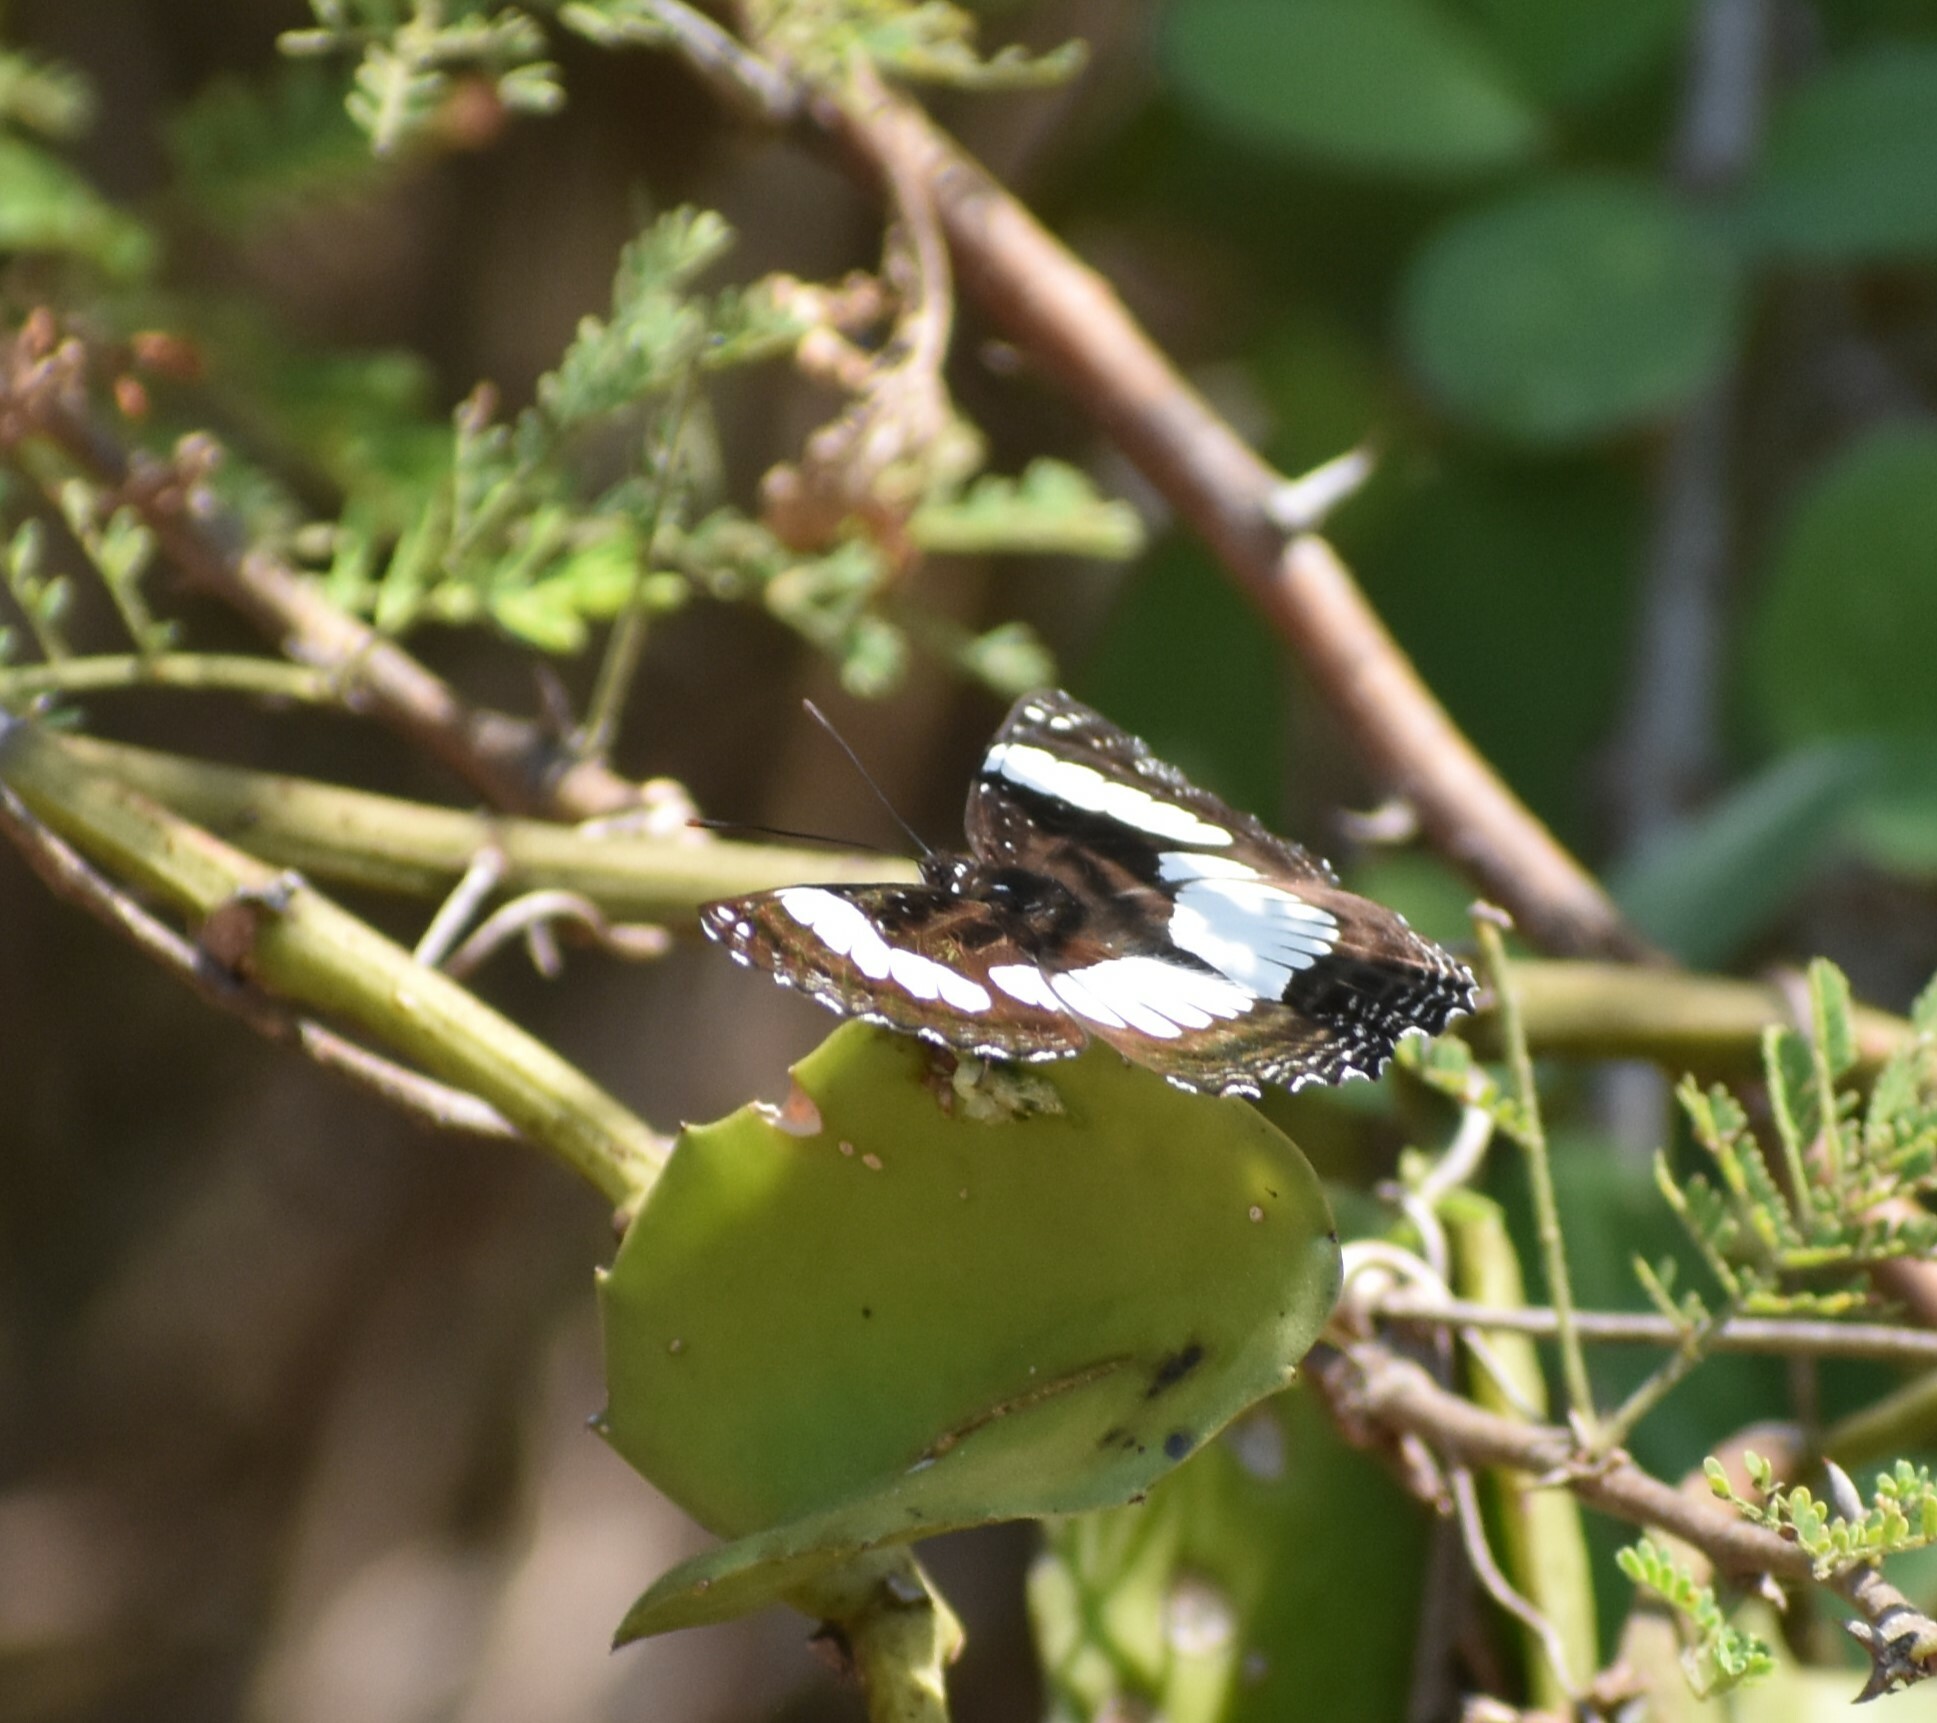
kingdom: Animalia
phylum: Arthropoda
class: Insecta
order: Lepidoptera
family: Nymphalidae
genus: Neptis
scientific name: Neptis laeta
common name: Common barred sailor
